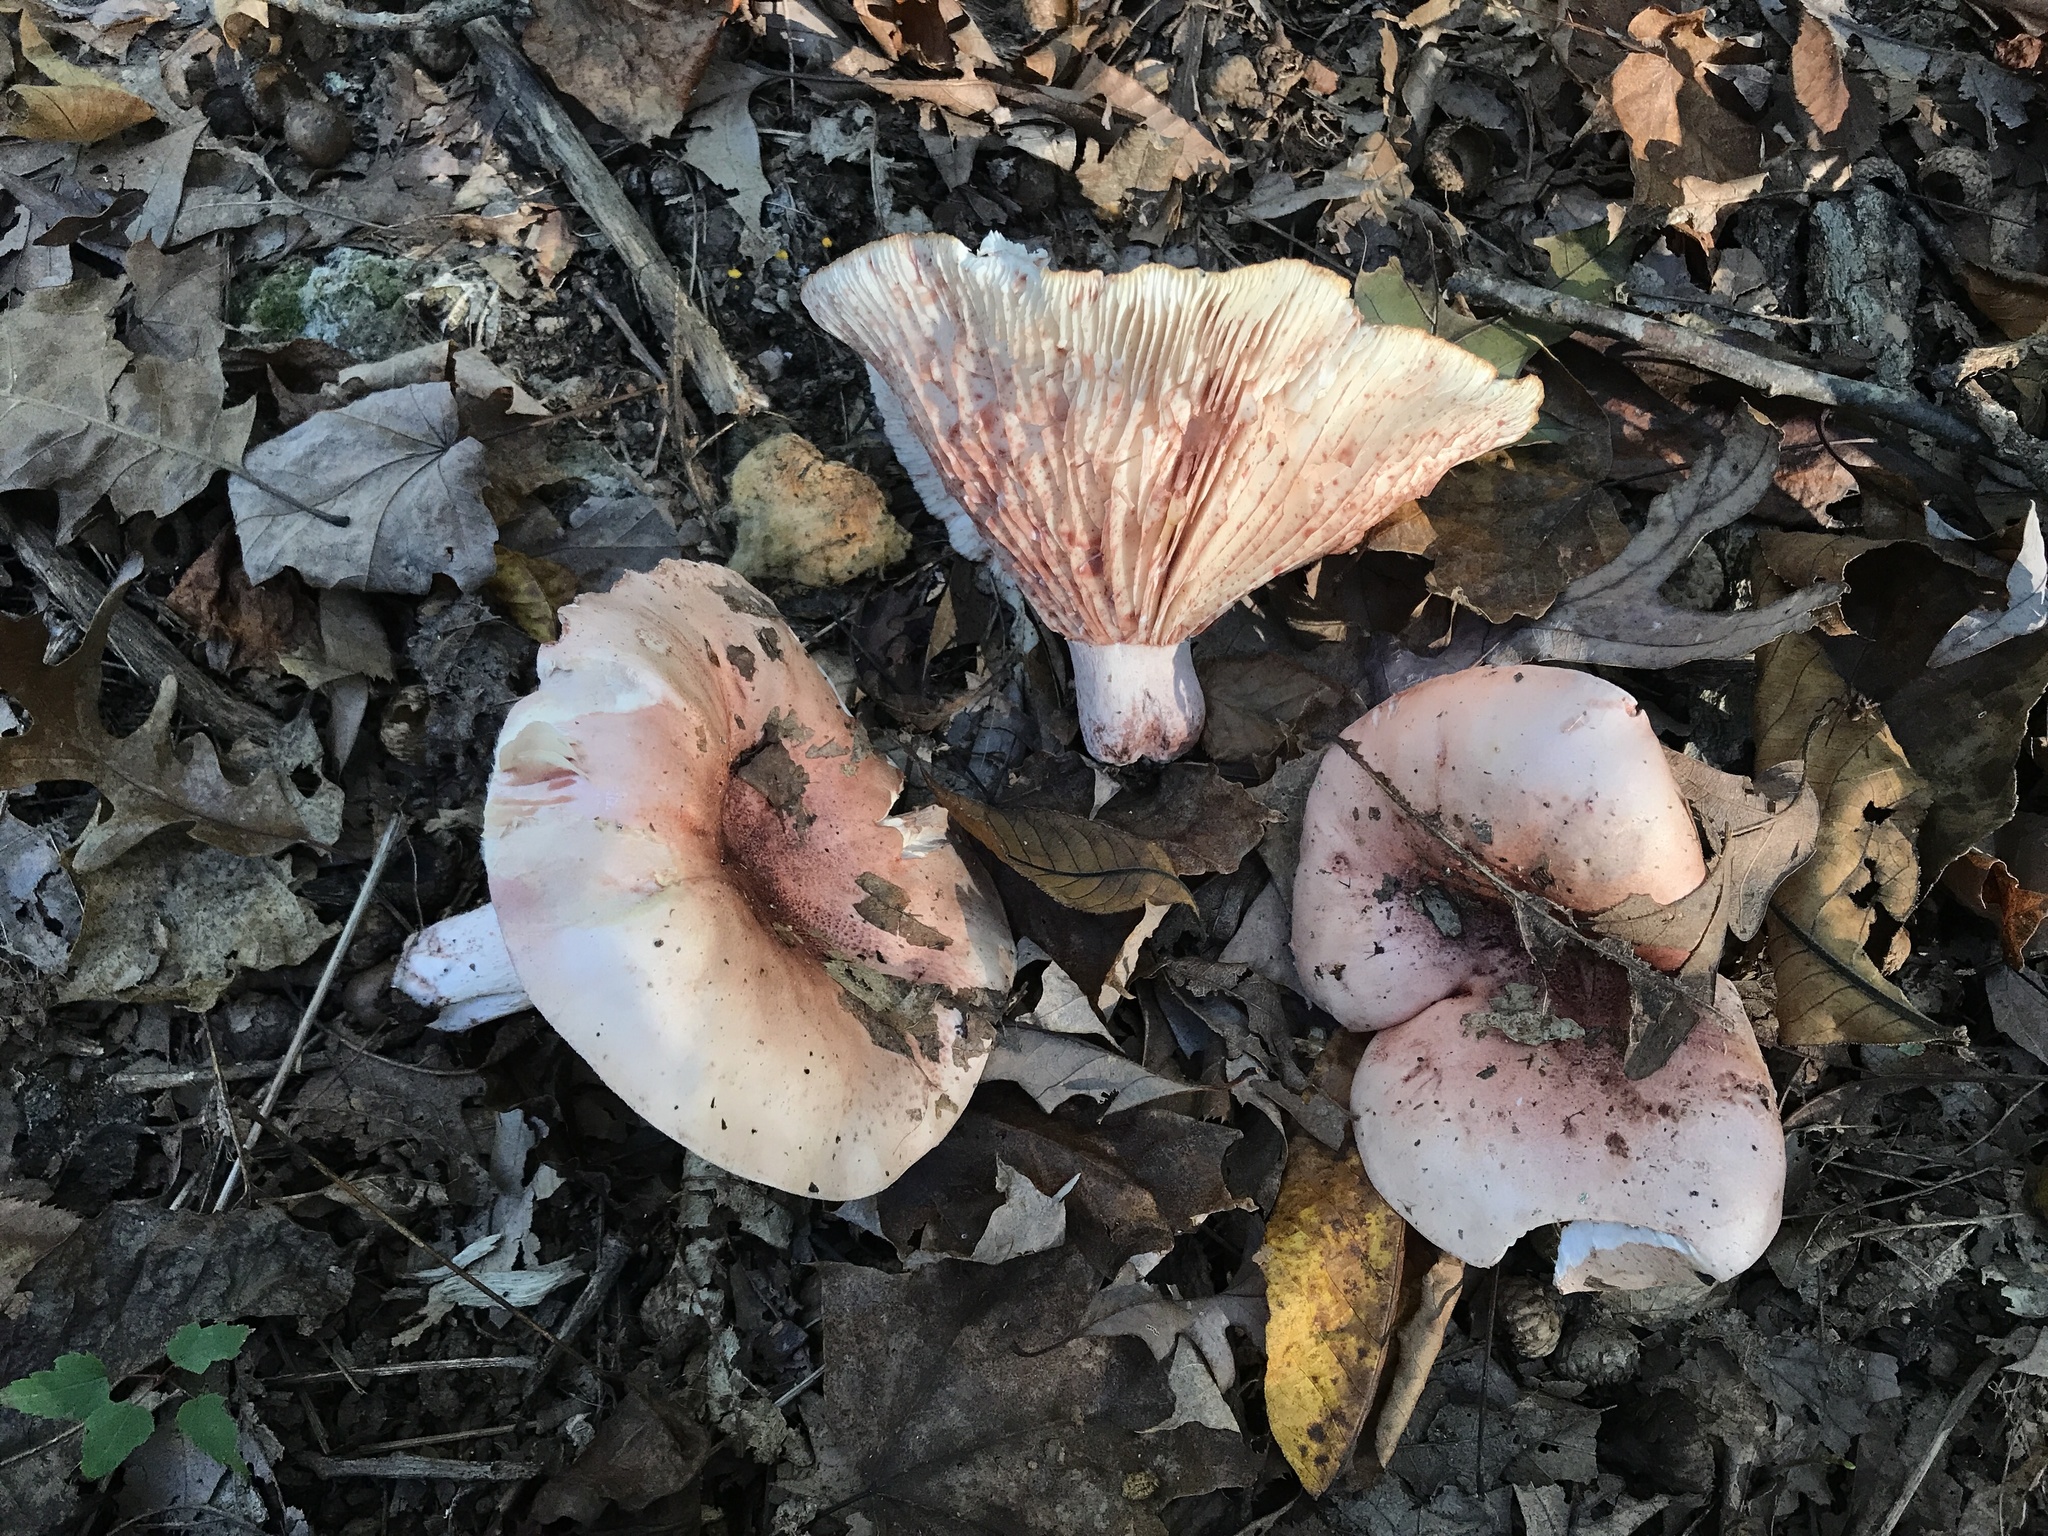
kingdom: Fungi
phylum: Basidiomycota
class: Agaricomycetes
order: Agaricales
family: Hygrophoraceae
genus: Hygrophorus
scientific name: Hygrophorus russula
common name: Pinkmottle woodwax
